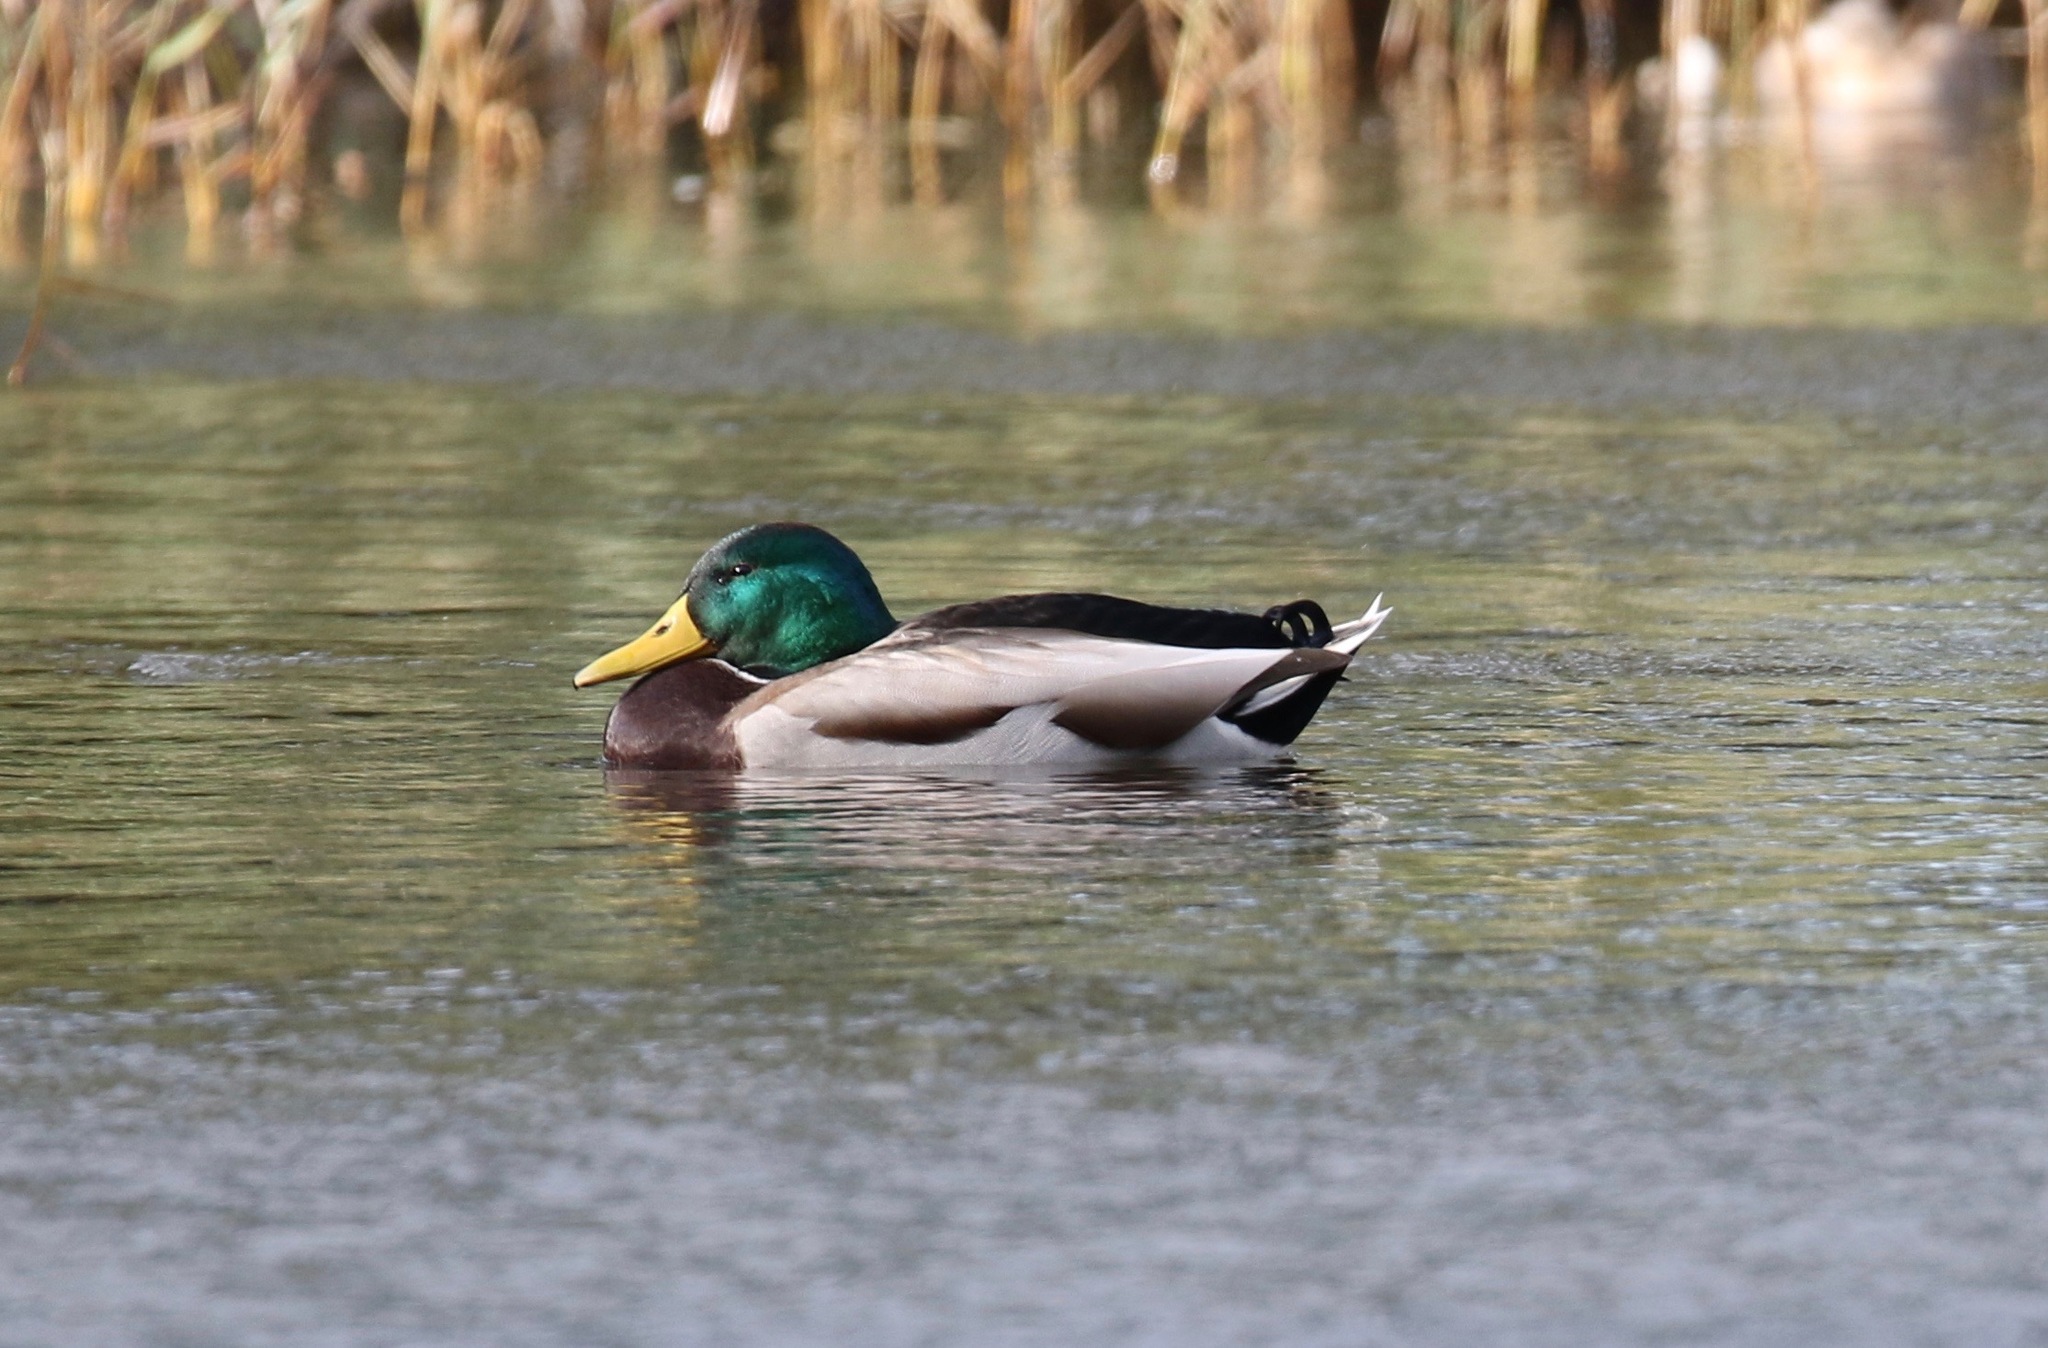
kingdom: Animalia
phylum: Chordata
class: Aves
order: Anseriformes
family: Anatidae
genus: Anas
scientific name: Anas platyrhynchos
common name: Mallard
